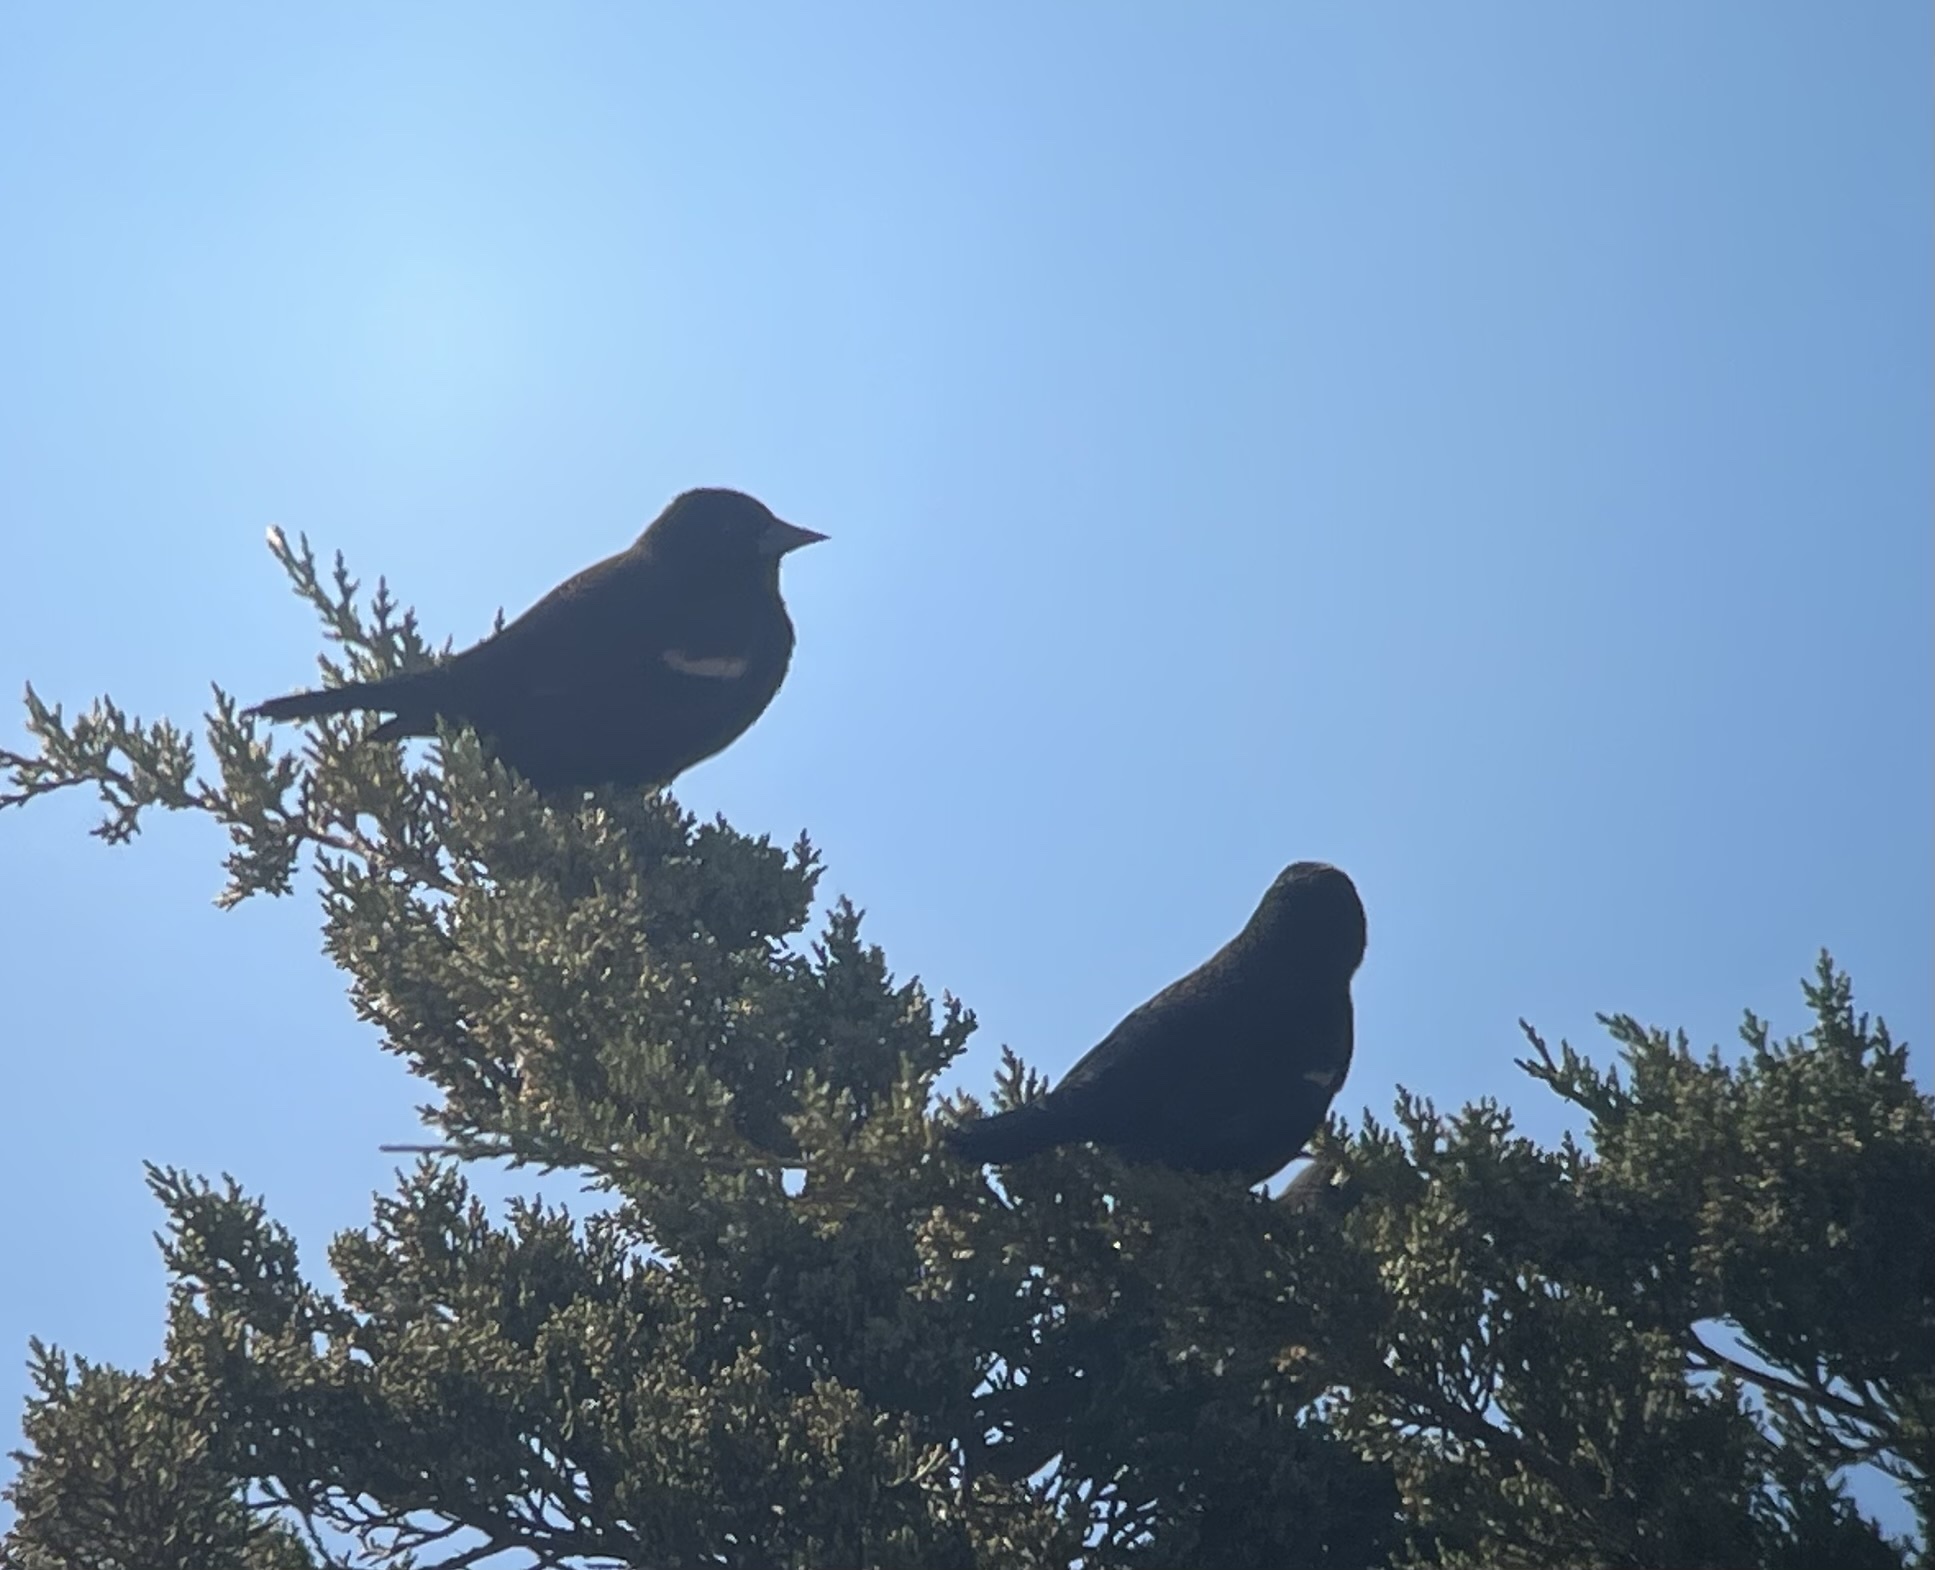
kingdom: Animalia
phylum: Chordata
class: Aves
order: Passeriformes
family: Icteridae
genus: Agelaius
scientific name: Agelaius phoeniceus
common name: Red-winged blackbird
